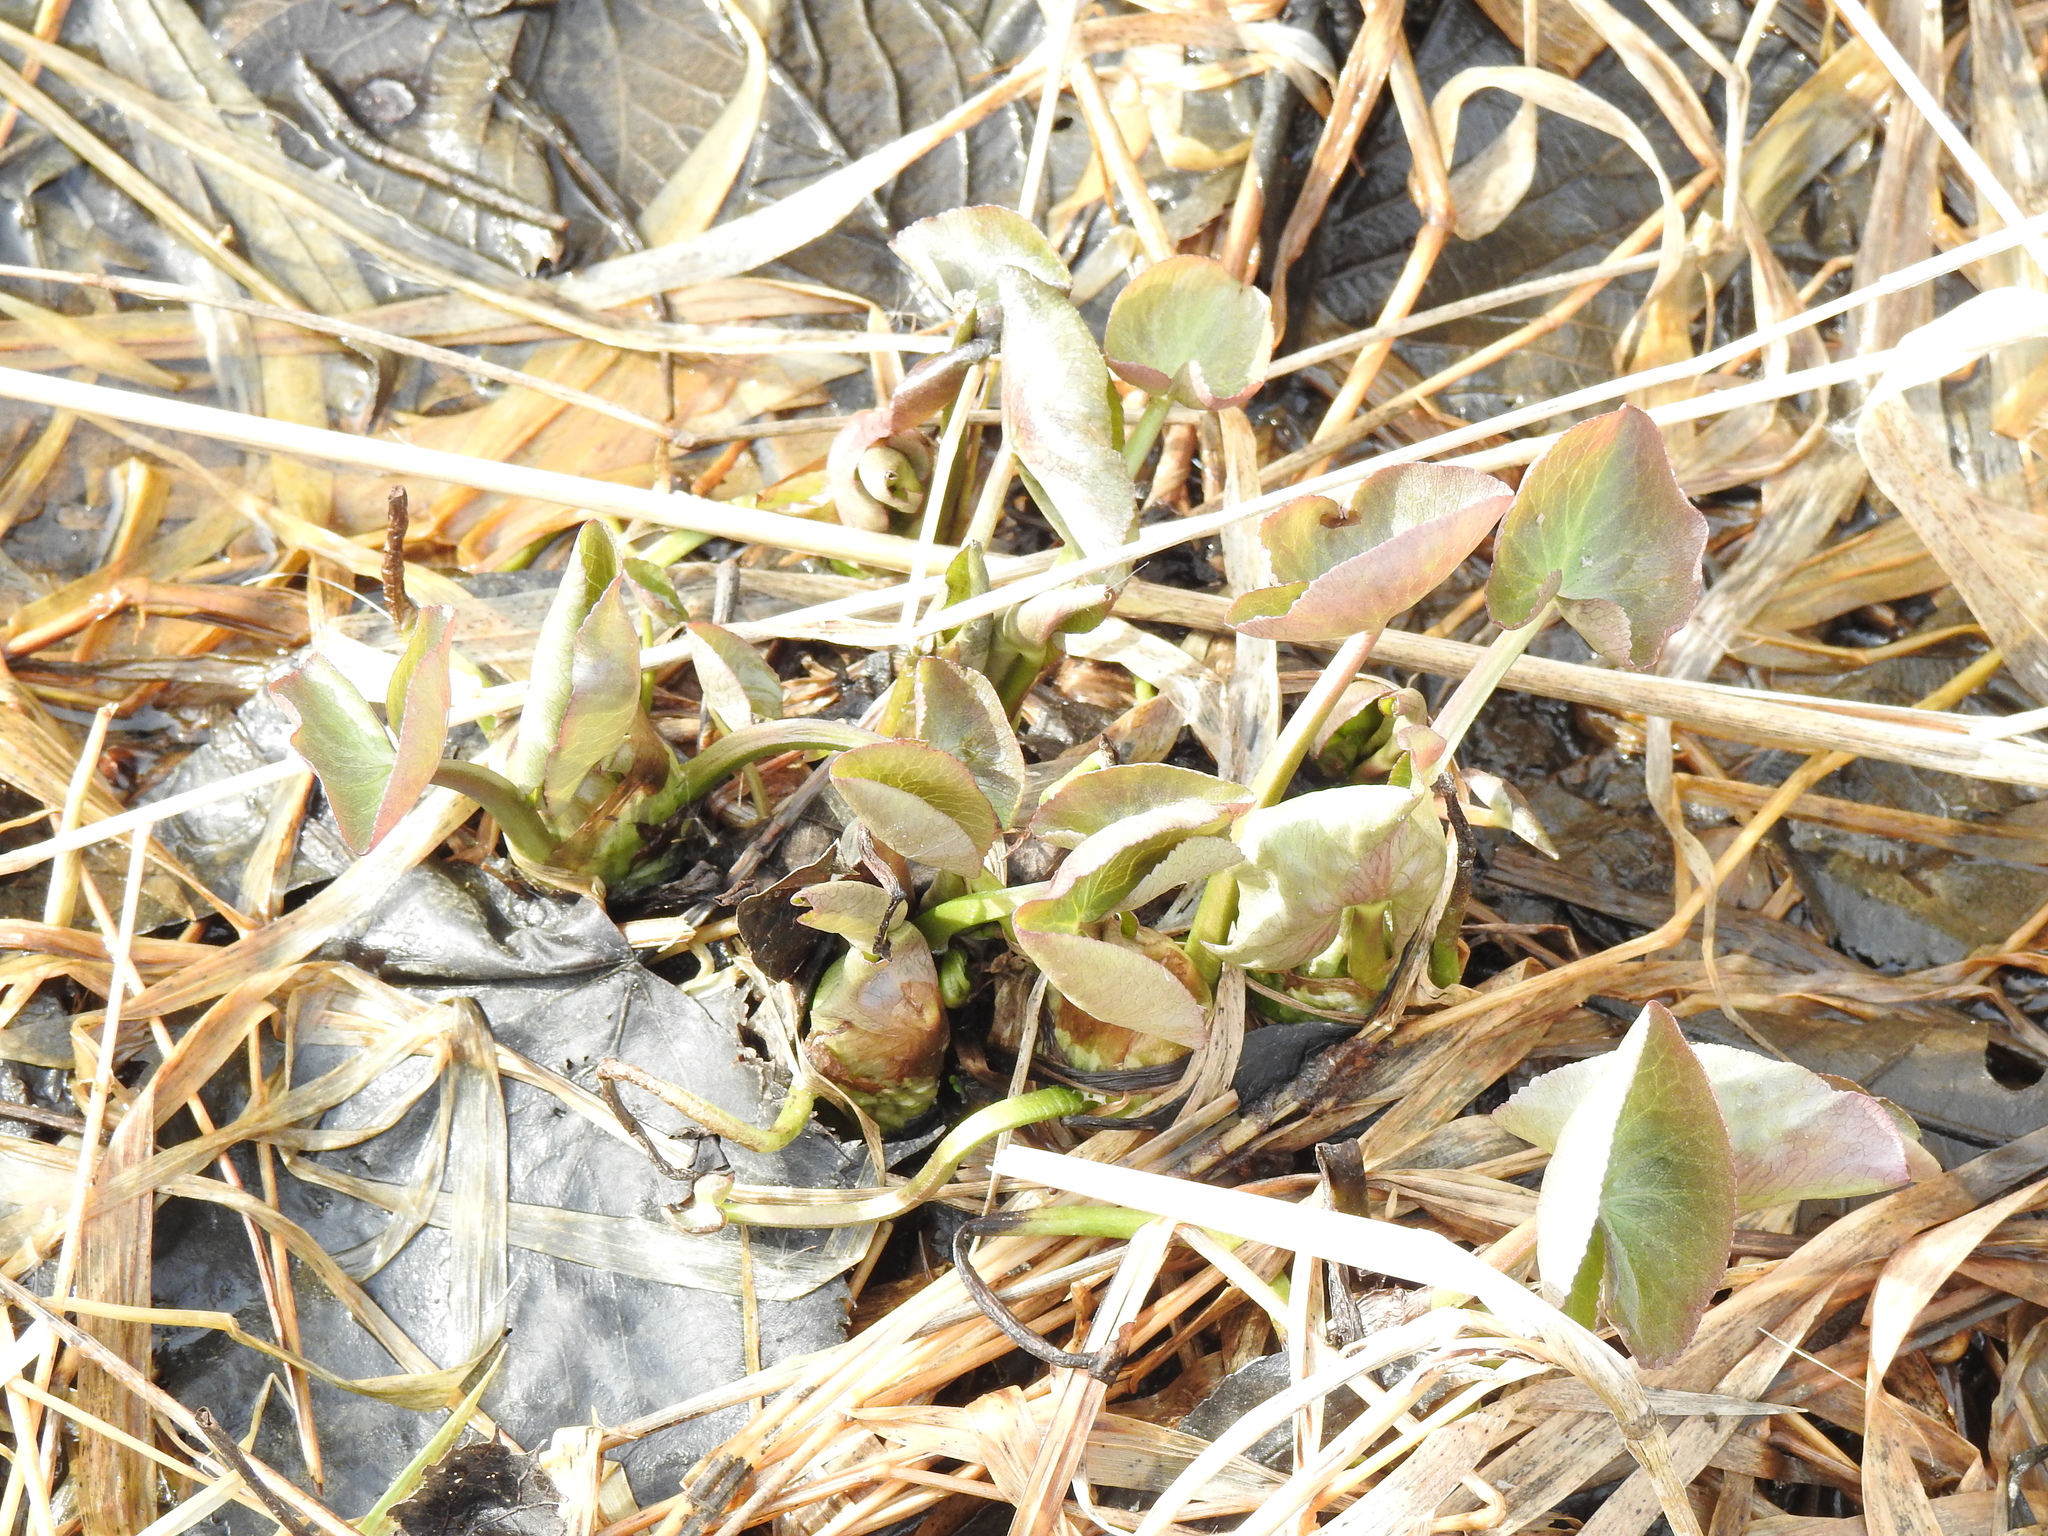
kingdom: Plantae
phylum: Tracheophyta
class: Magnoliopsida
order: Ranunculales
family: Ranunculaceae
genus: Caltha
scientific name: Caltha palustris
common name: Marsh marigold
